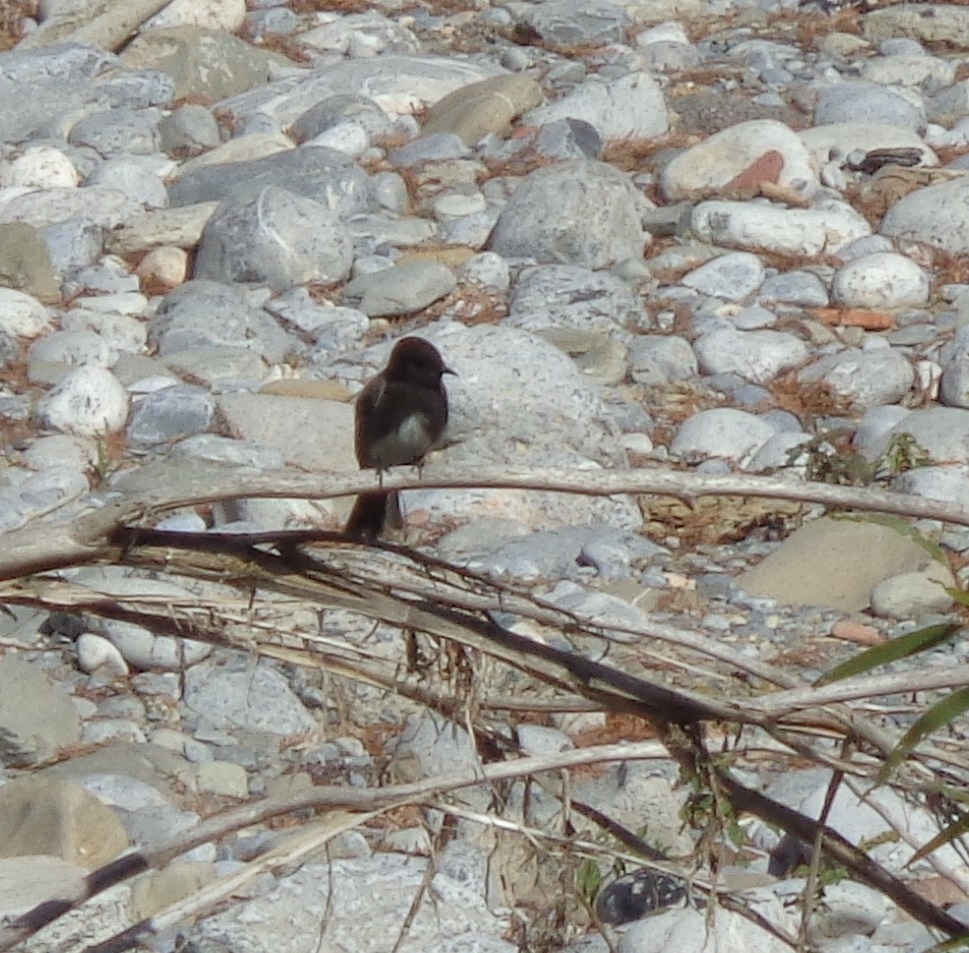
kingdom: Animalia
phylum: Chordata
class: Aves
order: Passeriformes
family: Tyrannidae
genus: Sayornis
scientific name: Sayornis nigricans
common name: Black phoebe
